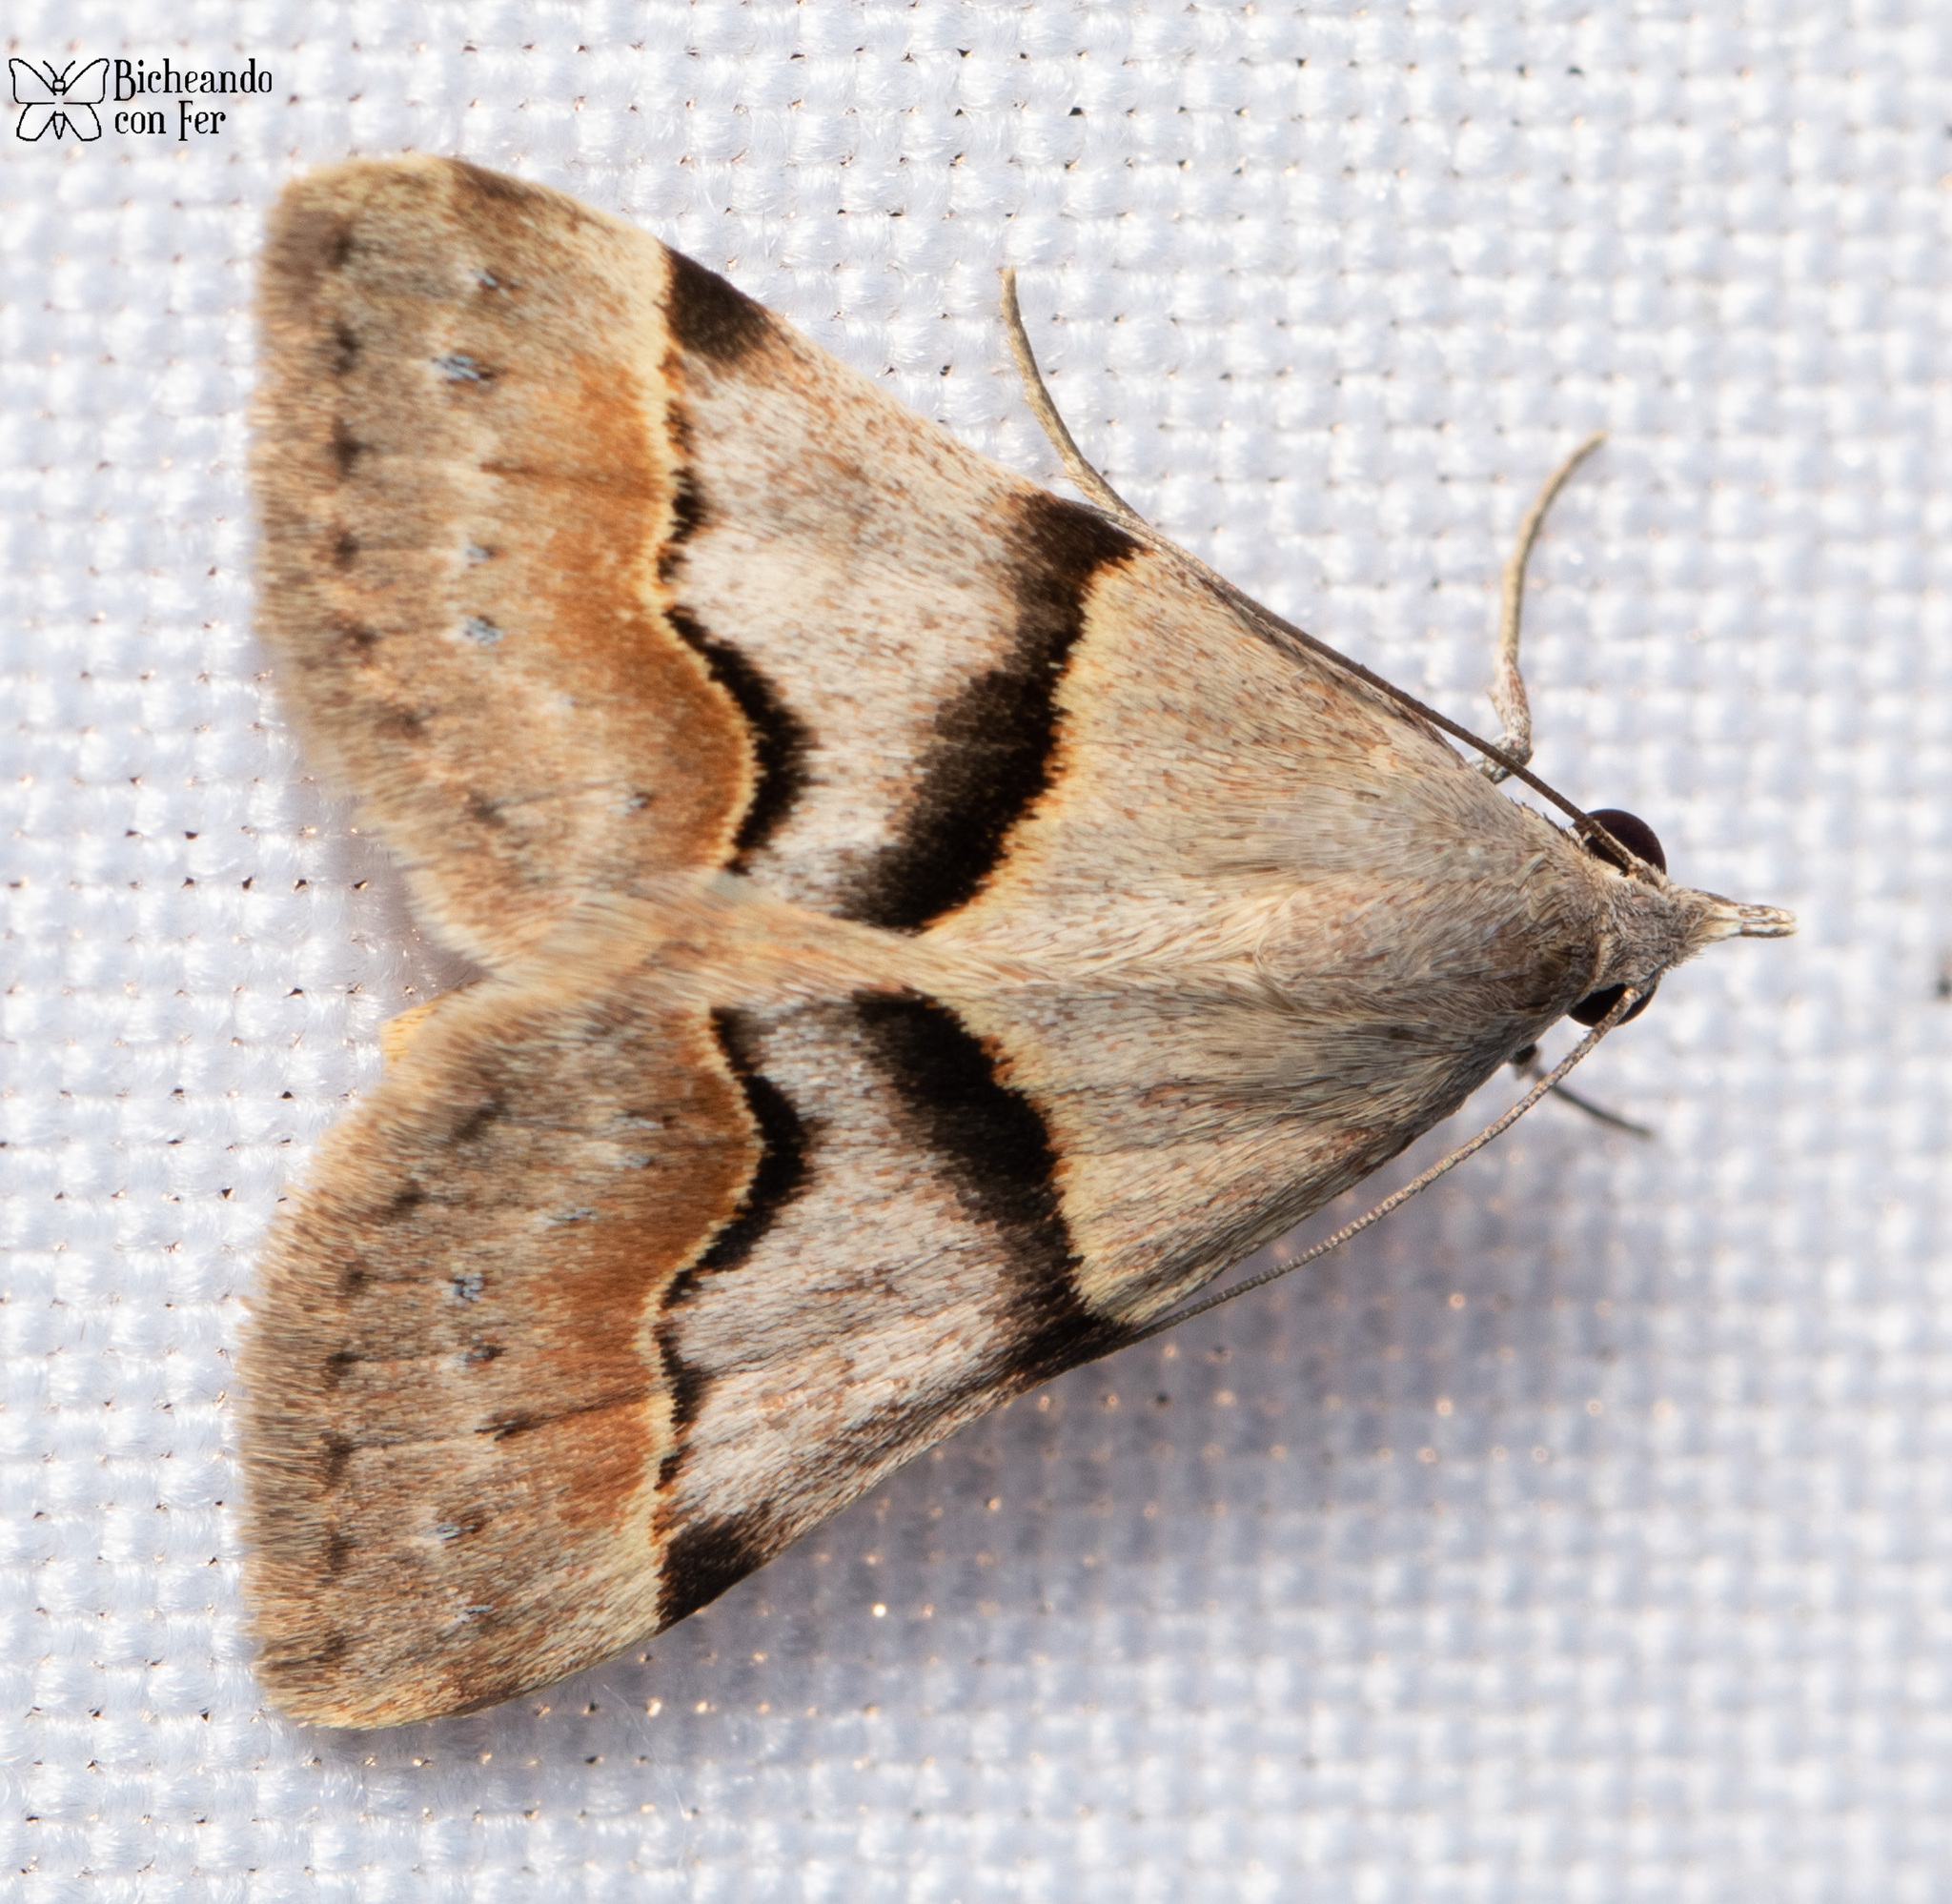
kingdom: Animalia
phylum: Arthropoda
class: Insecta
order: Lepidoptera
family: Erebidae
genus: Hemeroplanis
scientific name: Hemeroplanis incusalis
